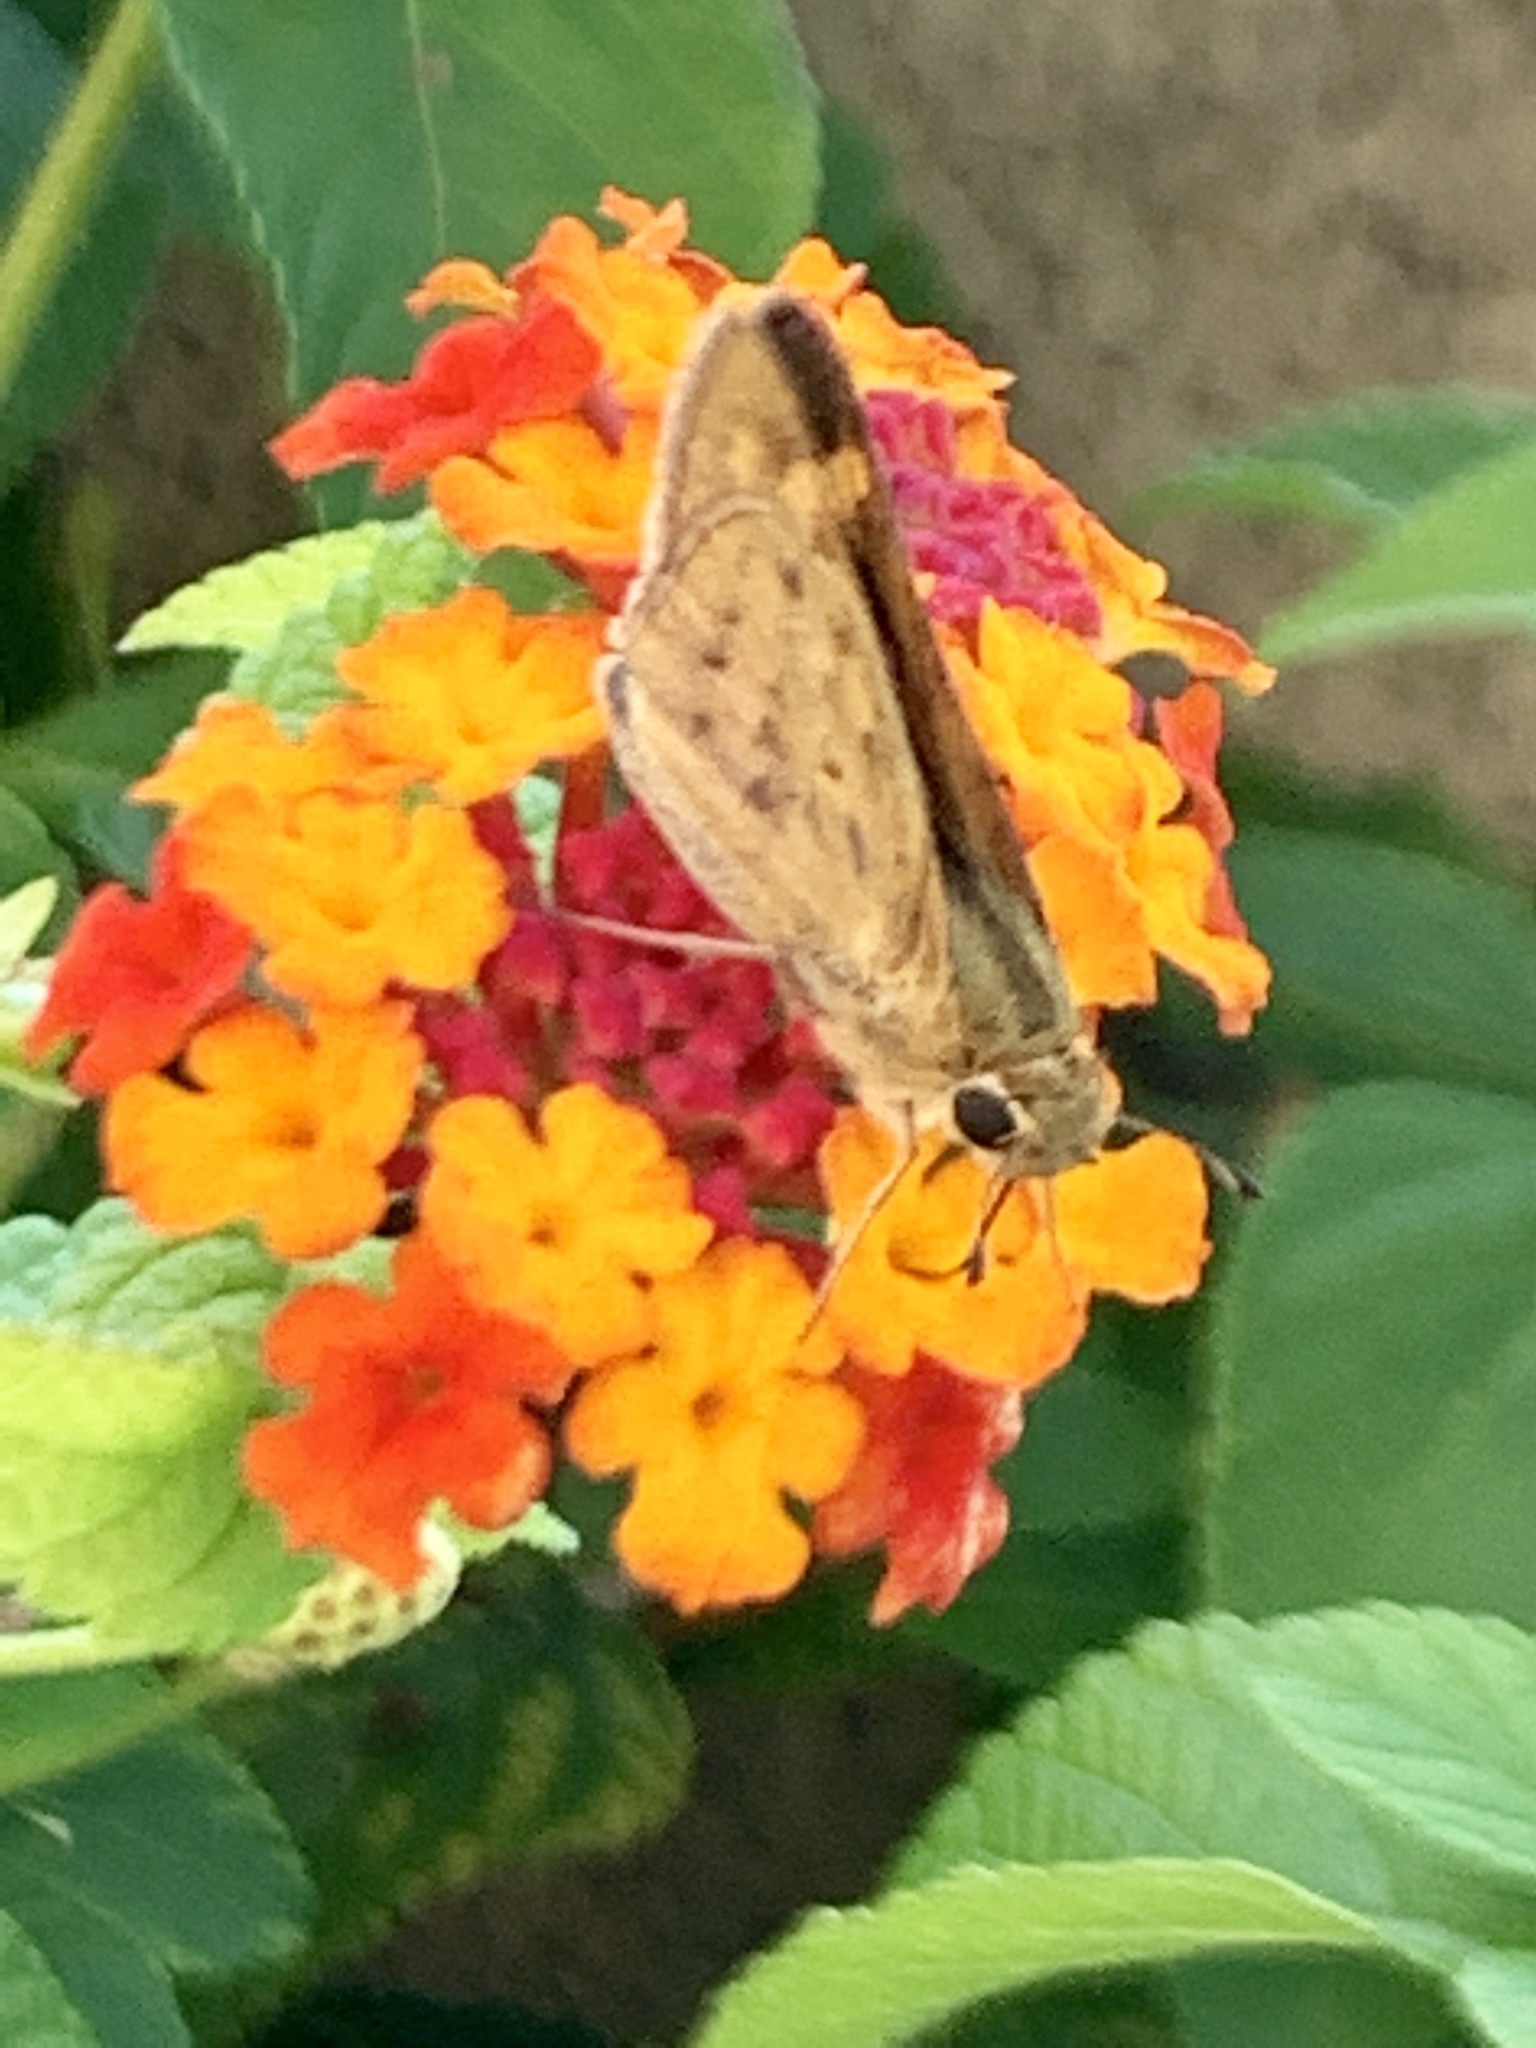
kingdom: Animalia
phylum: Arthropoda
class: Insecta
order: Lepidoptera
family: Hesperiidae
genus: Hylephila
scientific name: Hylephila phyleus
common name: Fiery skipper
